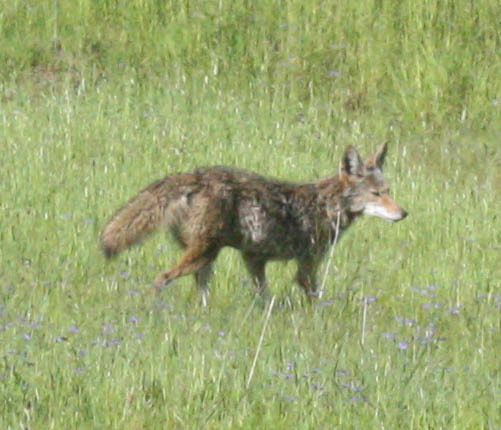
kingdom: Animalia
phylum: Chordata
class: Mammalia
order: Carnivora
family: Canidae
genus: Canis
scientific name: Canis latrans
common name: Coyote
